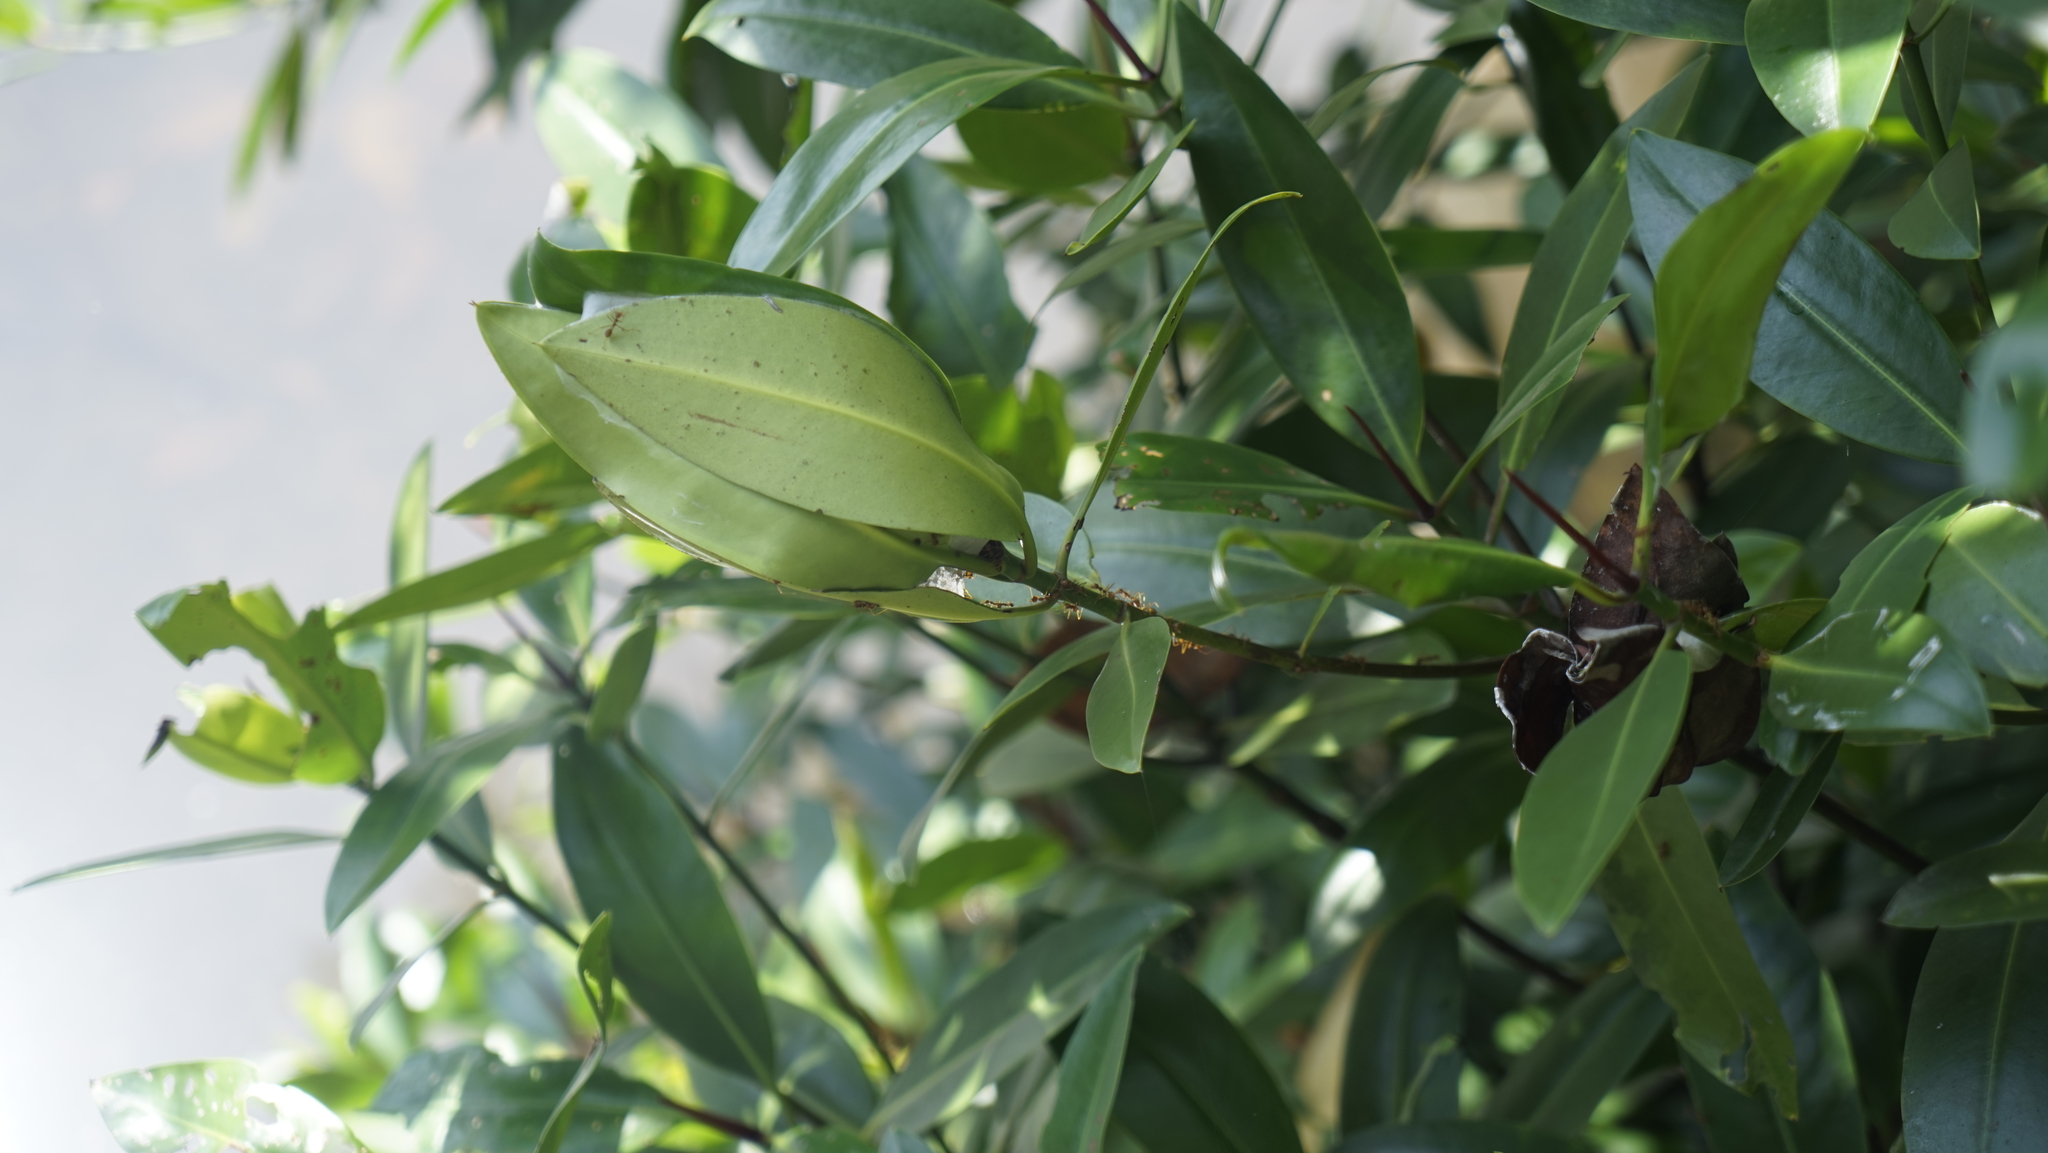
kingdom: Animalia
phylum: Arthropoda
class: Insecta
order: Hymenoptera
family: Formicidae
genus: Oecophylla
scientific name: Oecophylla smaragdina
